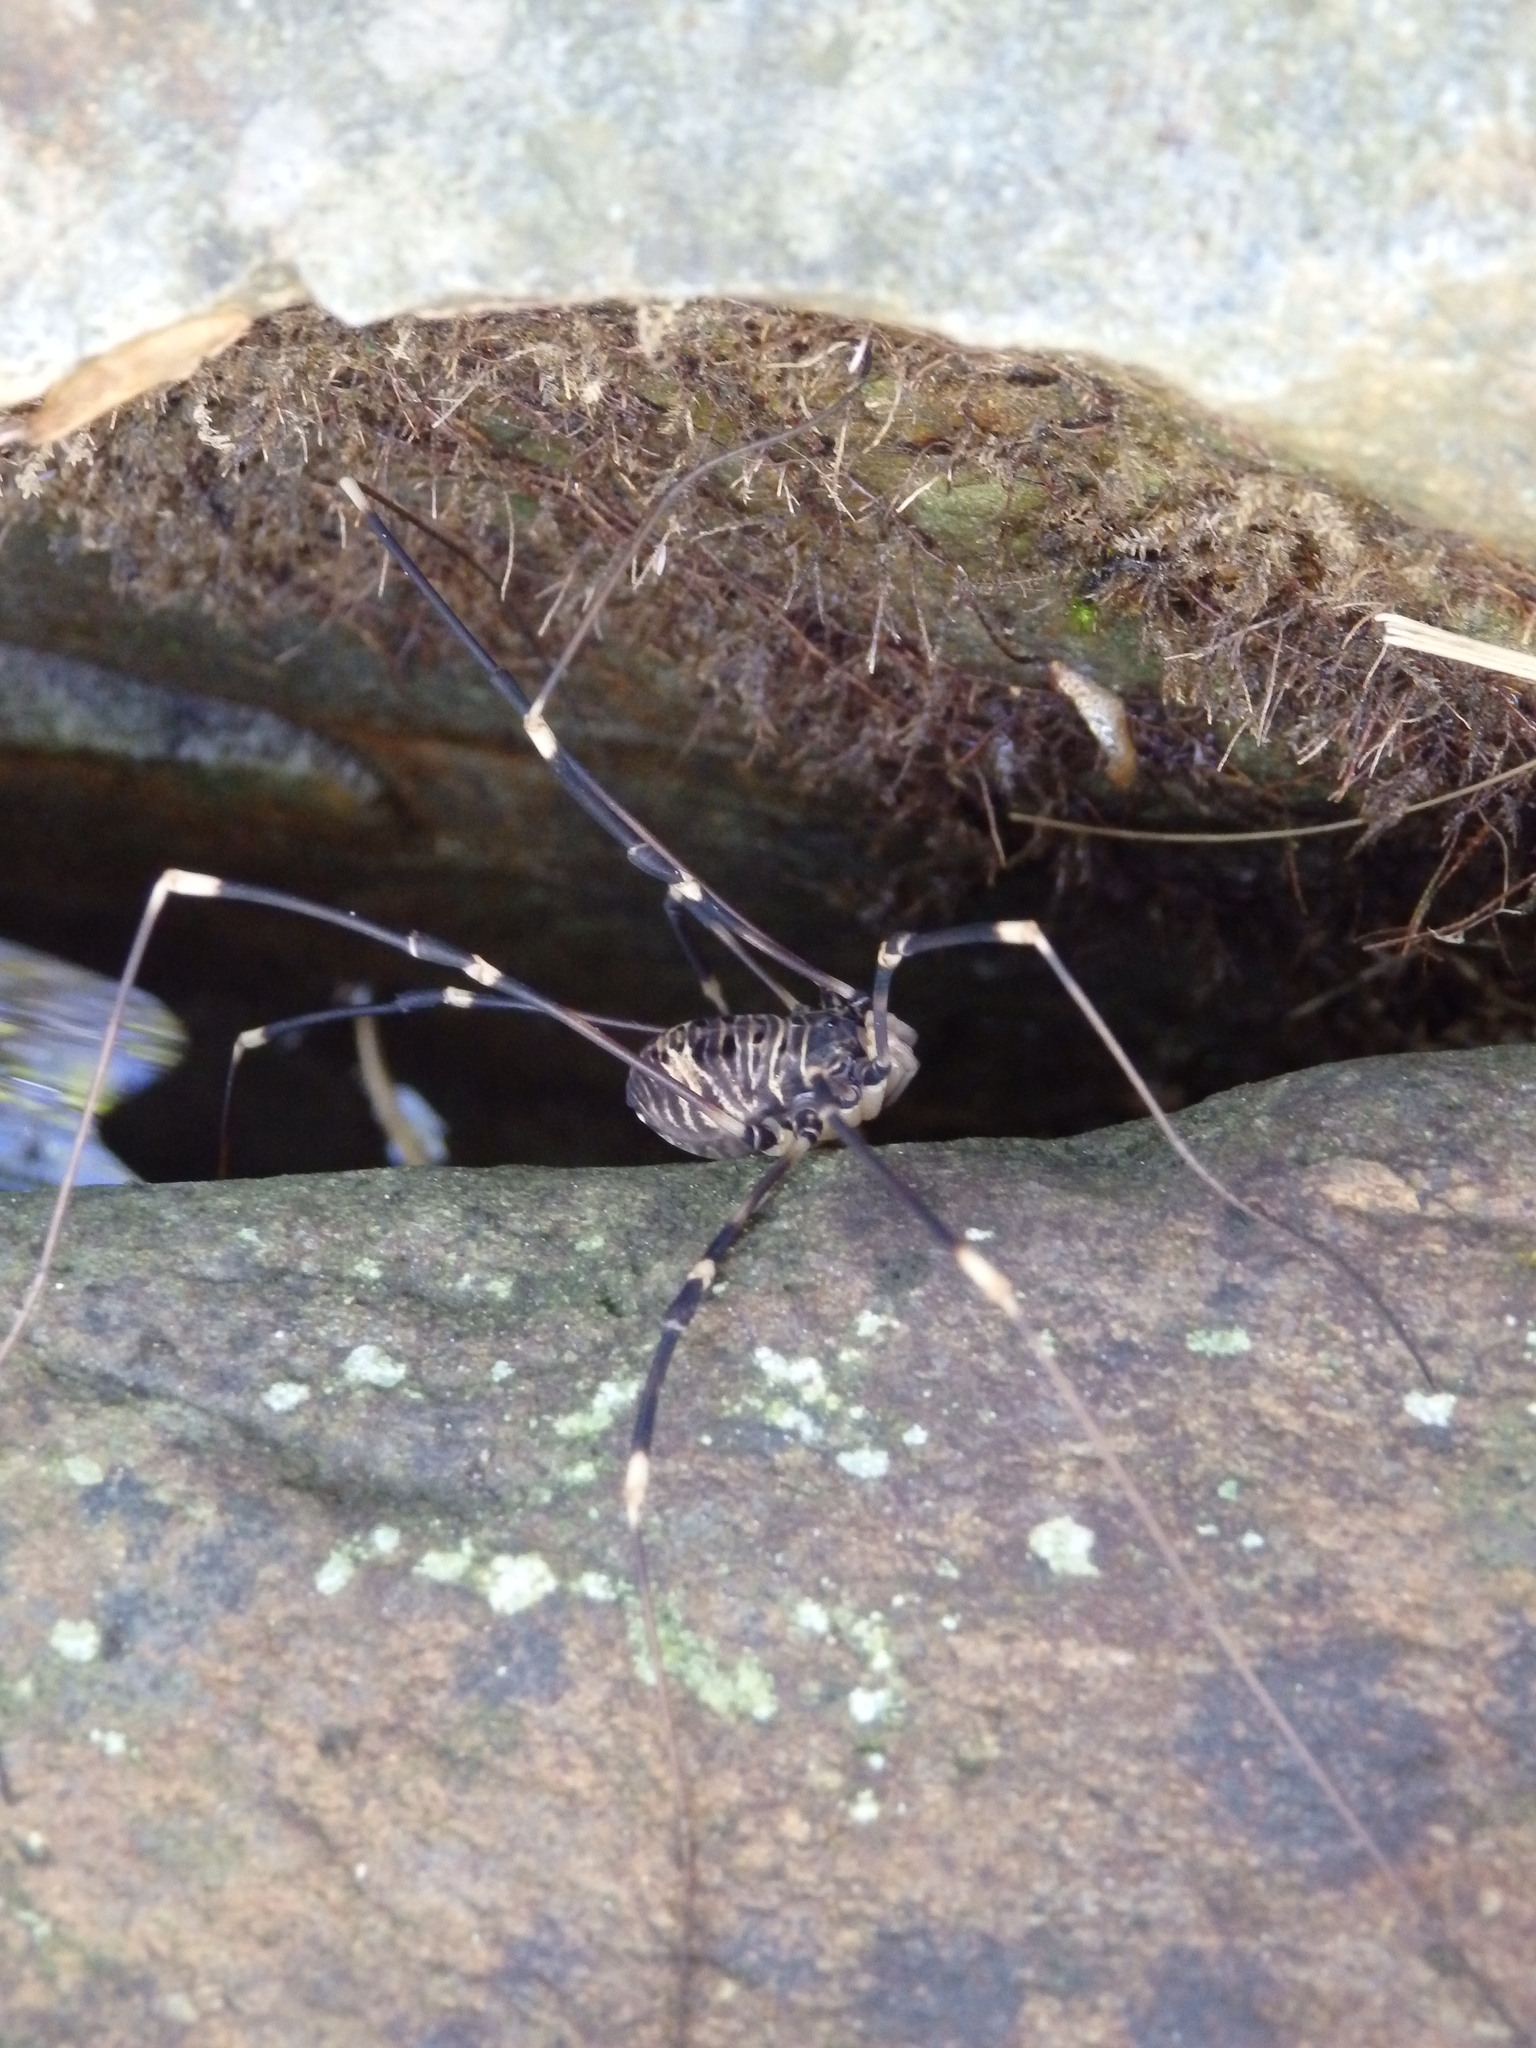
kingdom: Animalia
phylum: Arthropoda
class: Arachnida
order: Opiliones
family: Sclerosomatidae
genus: Gyas
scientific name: Gyas titanus
